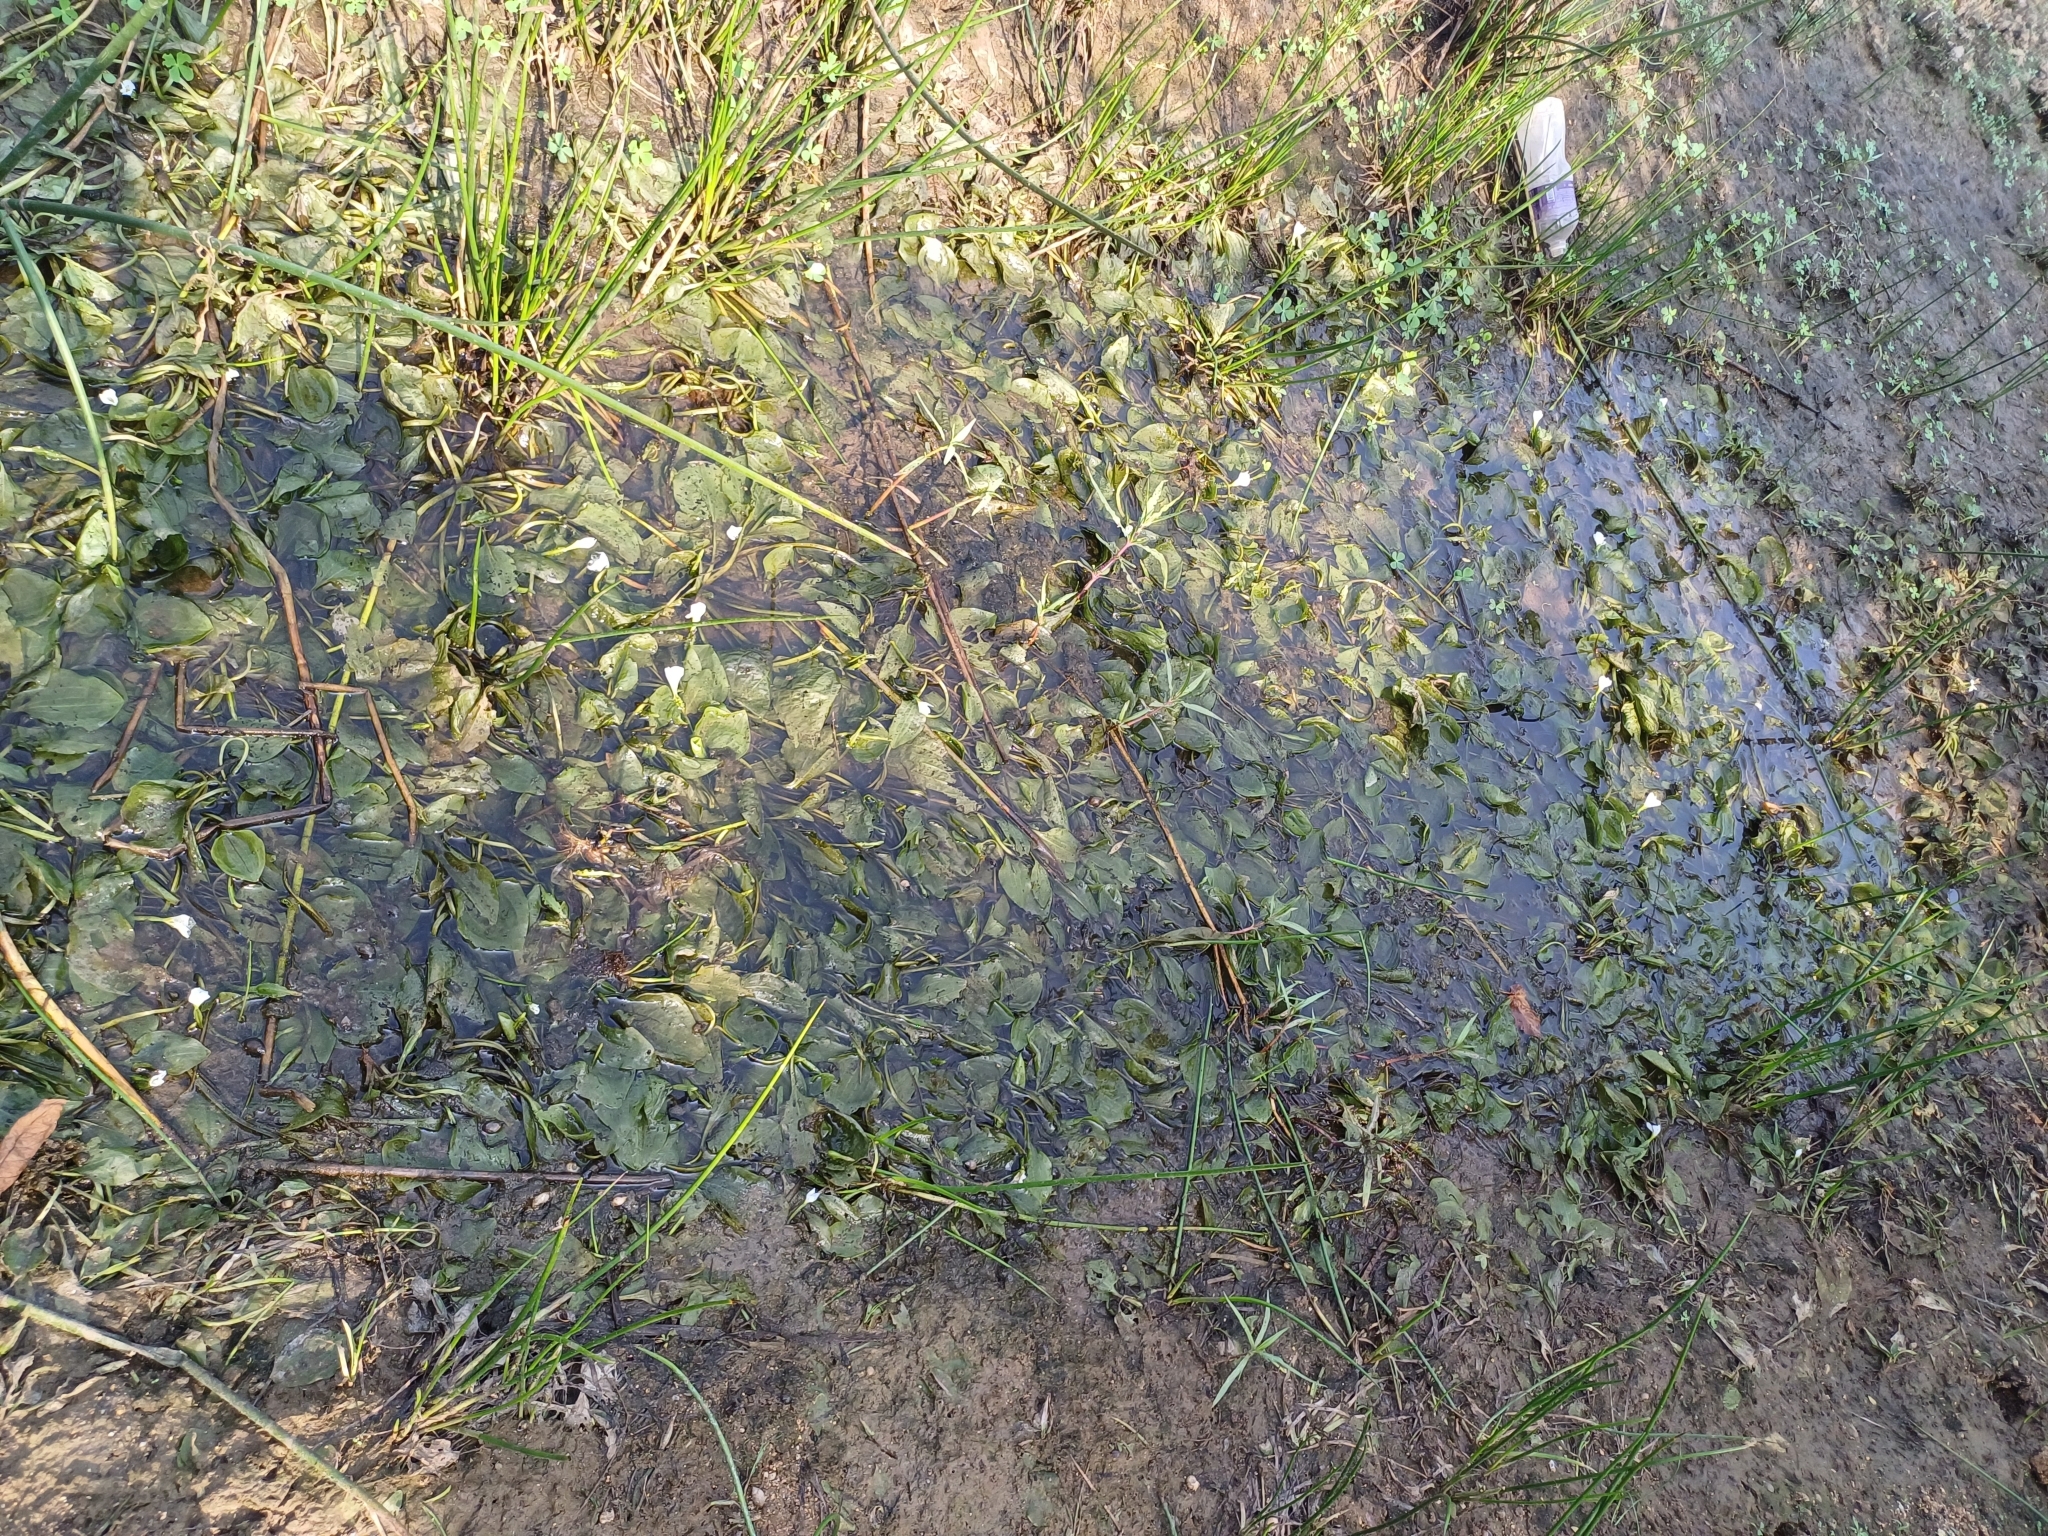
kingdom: Plantae
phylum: Tracheophyta
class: Liliopsida
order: Alismatales
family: Hydrocharitaceae
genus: Ottelia
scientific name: Ottelia alismoides
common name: Duck-lettuce
